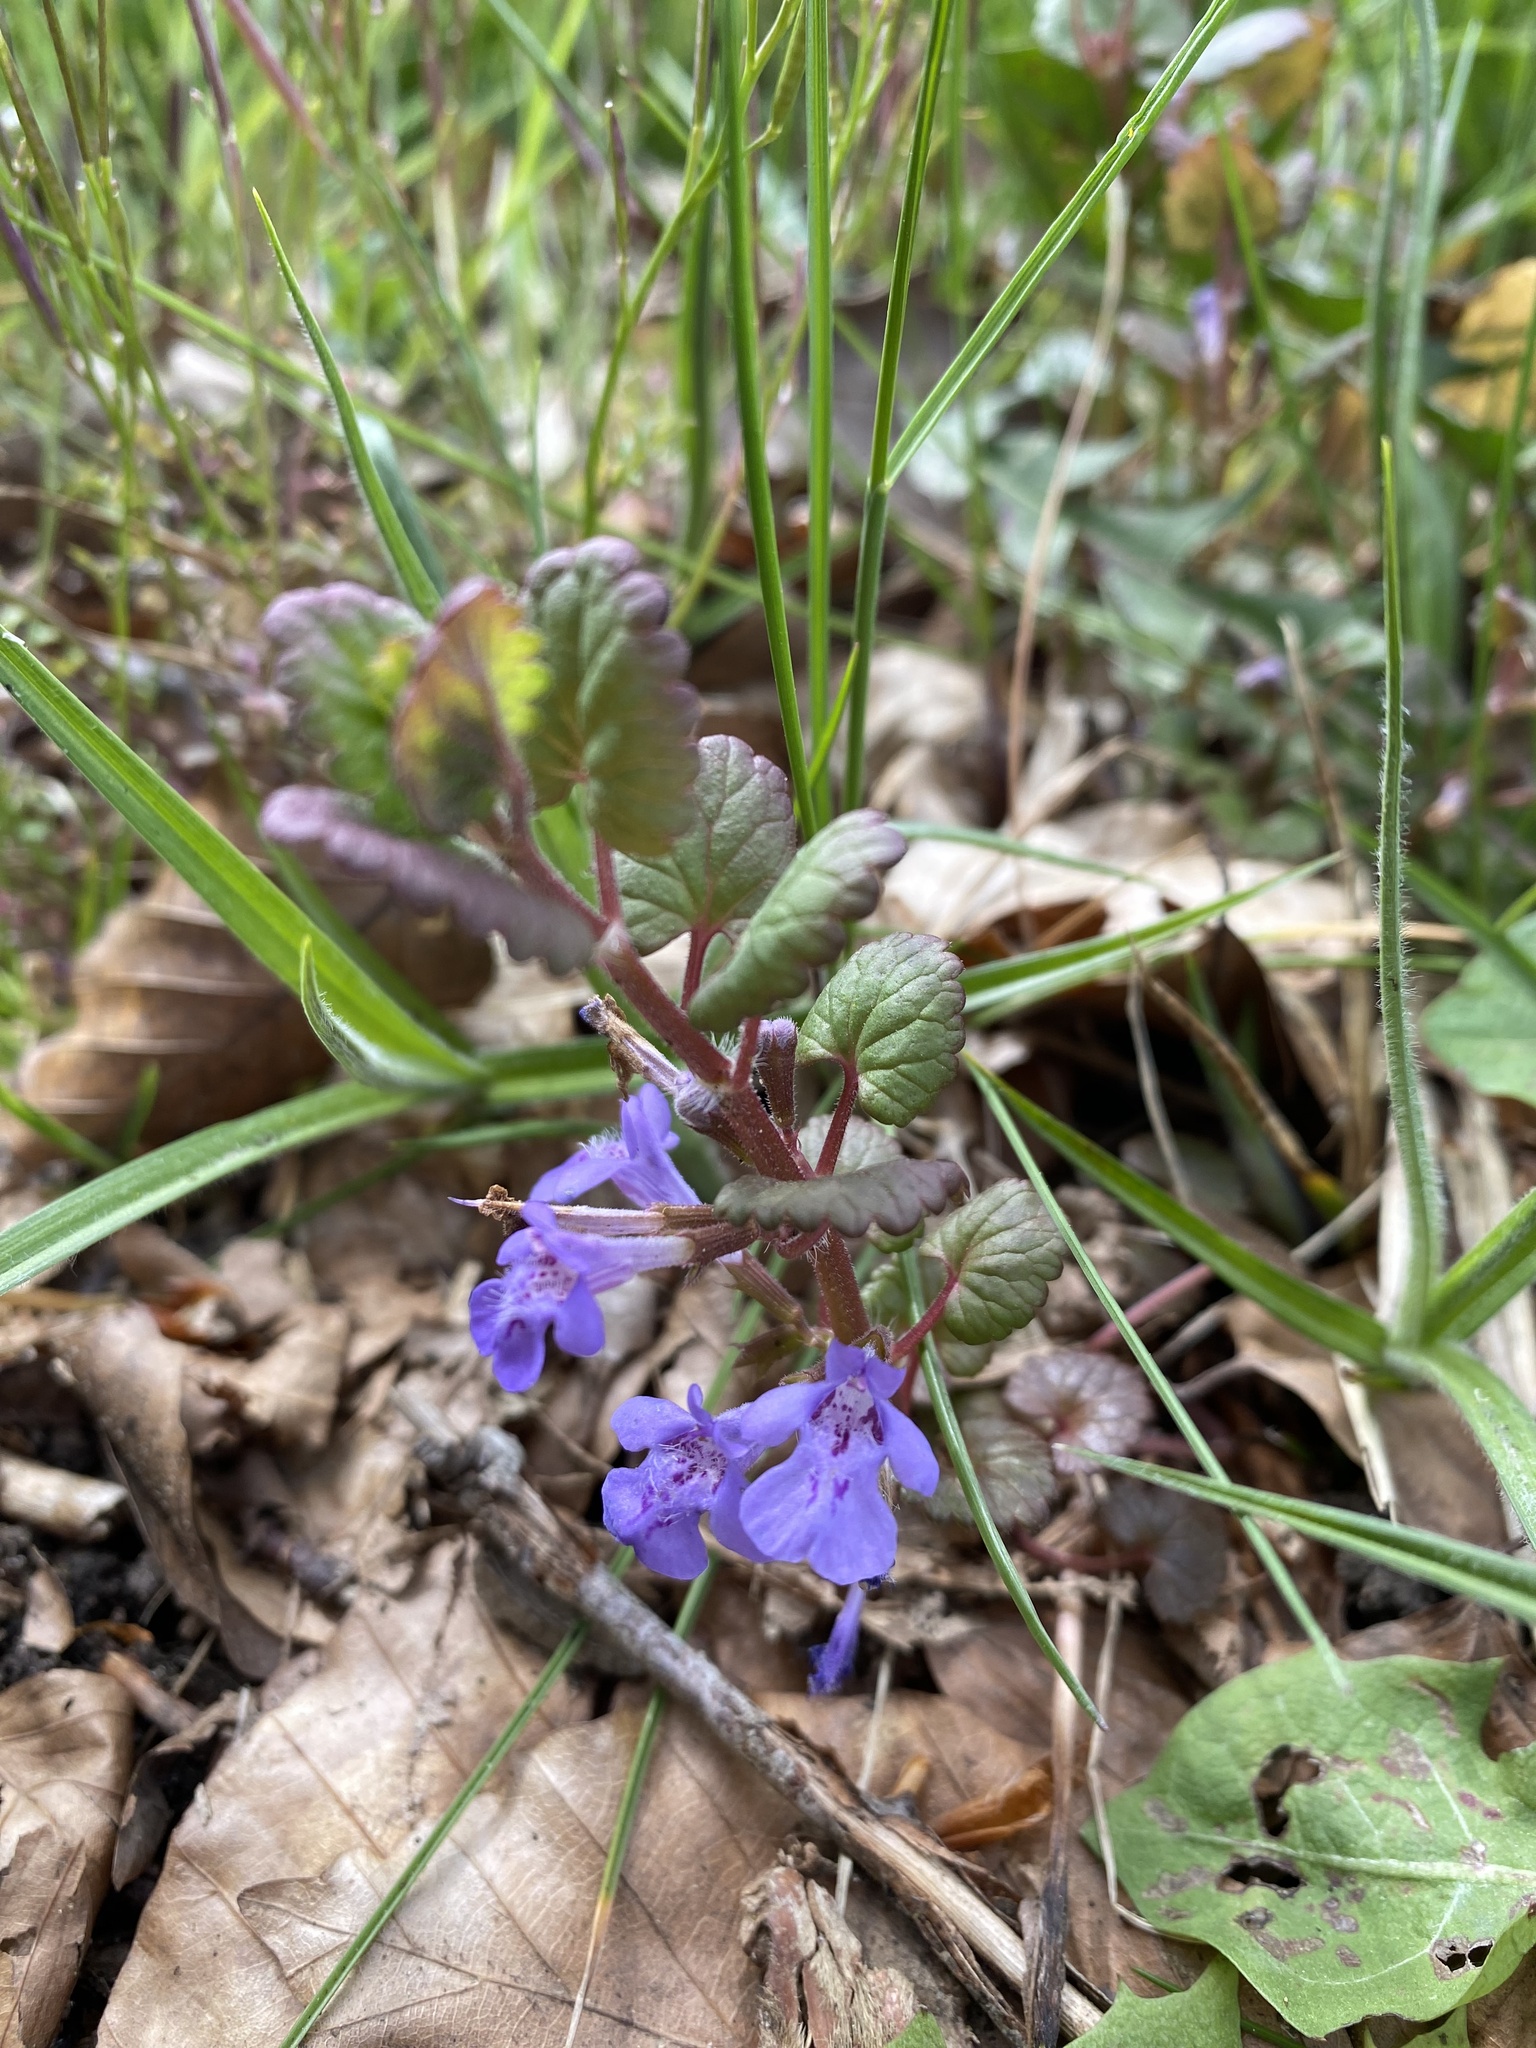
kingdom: Plantae
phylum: Tracheophyta
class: Magnoliopsida
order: Lamiales
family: Lamiaceae
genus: Glechoma
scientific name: Glechoma hederacea
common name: Ground ivy
